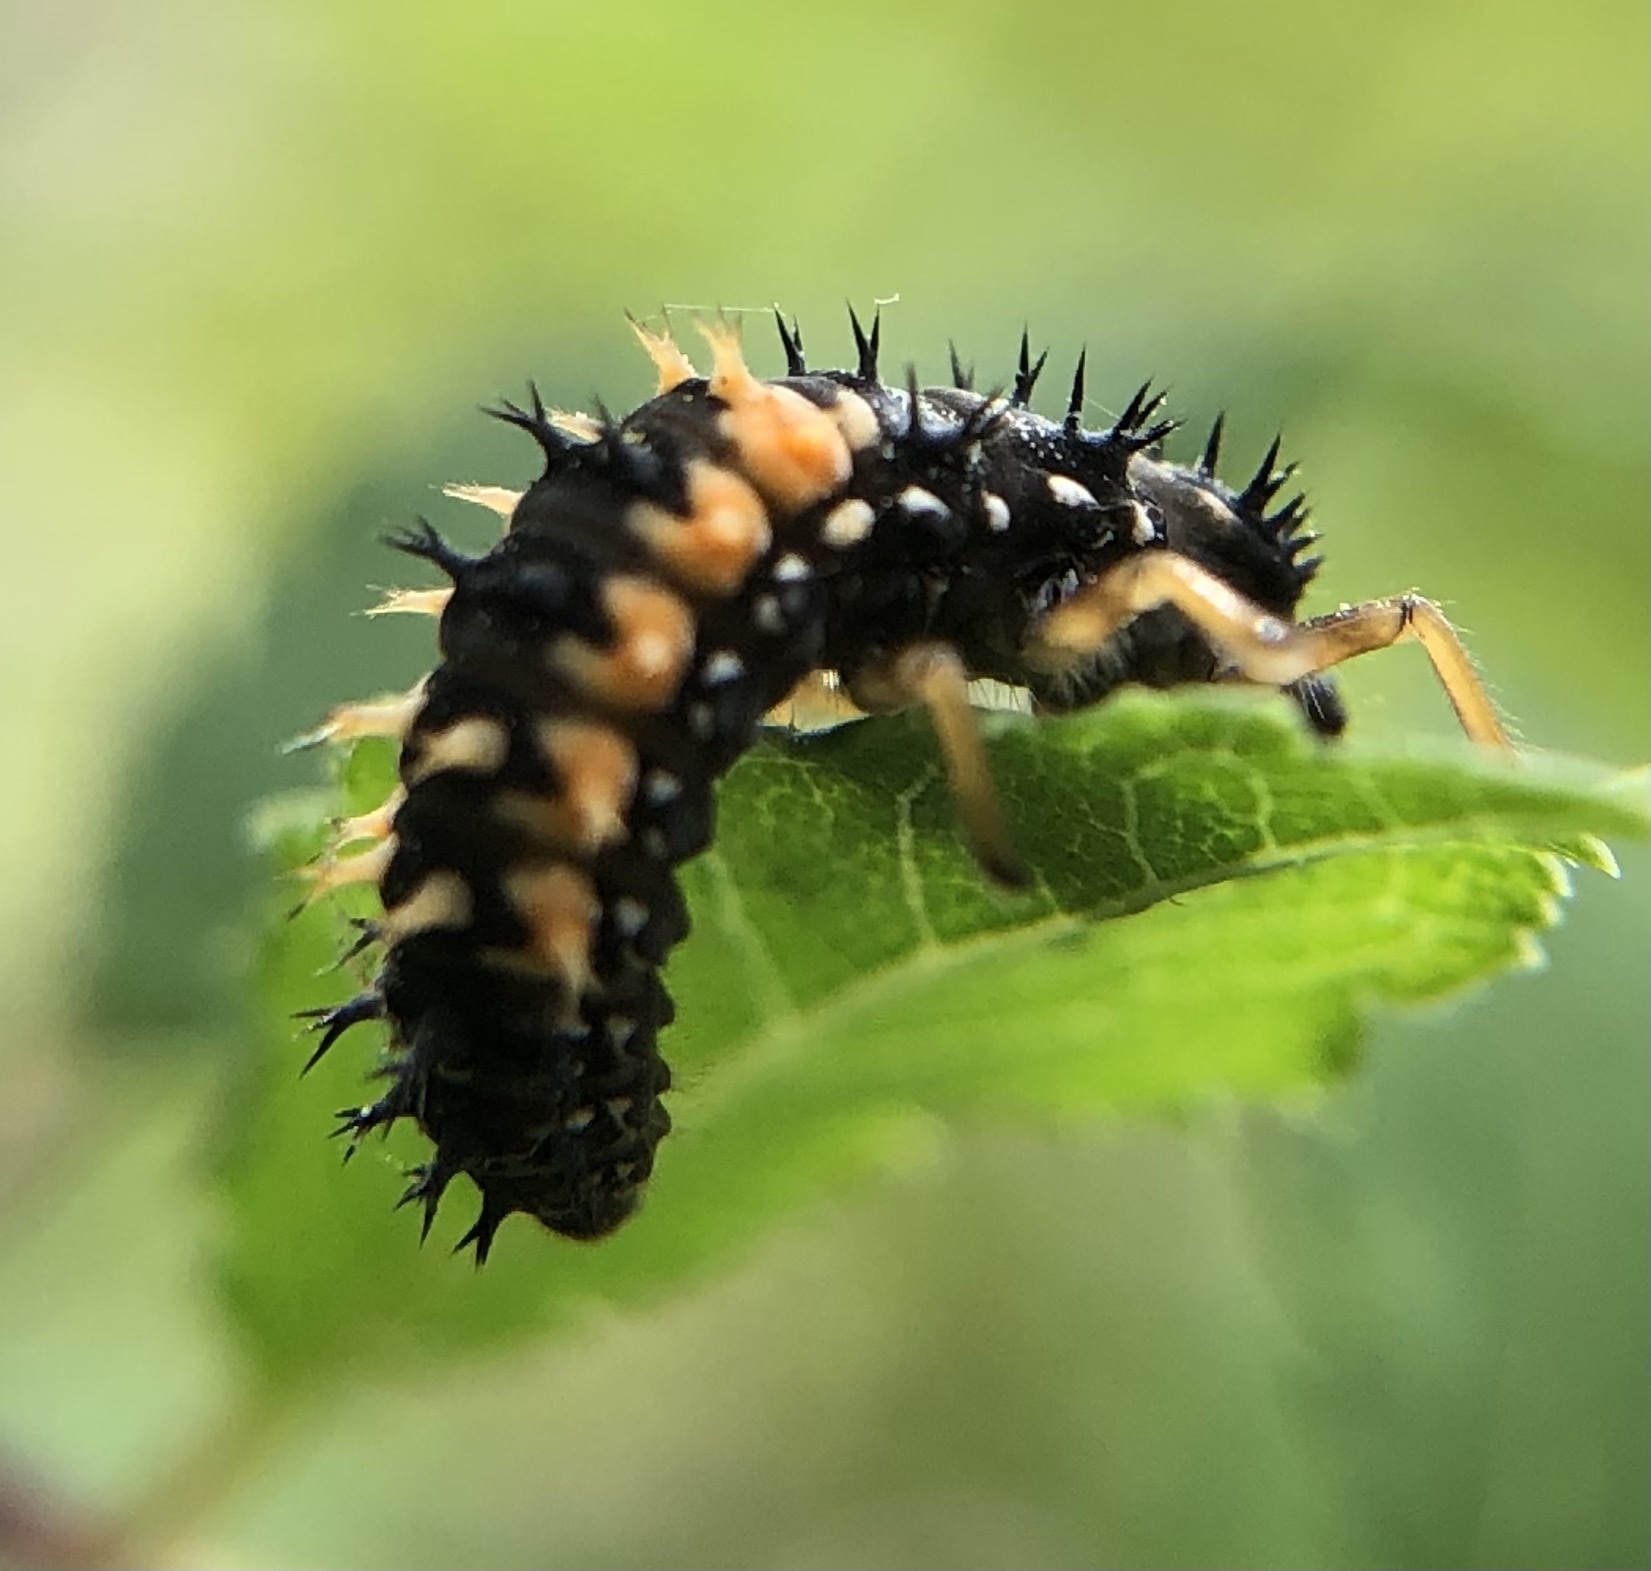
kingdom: Animalia
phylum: Arthropoda
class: Insecta
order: Coleoptera
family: Coccinellidae
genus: Harmonia
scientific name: Harmonia axyridis
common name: Harlequin ladybird
